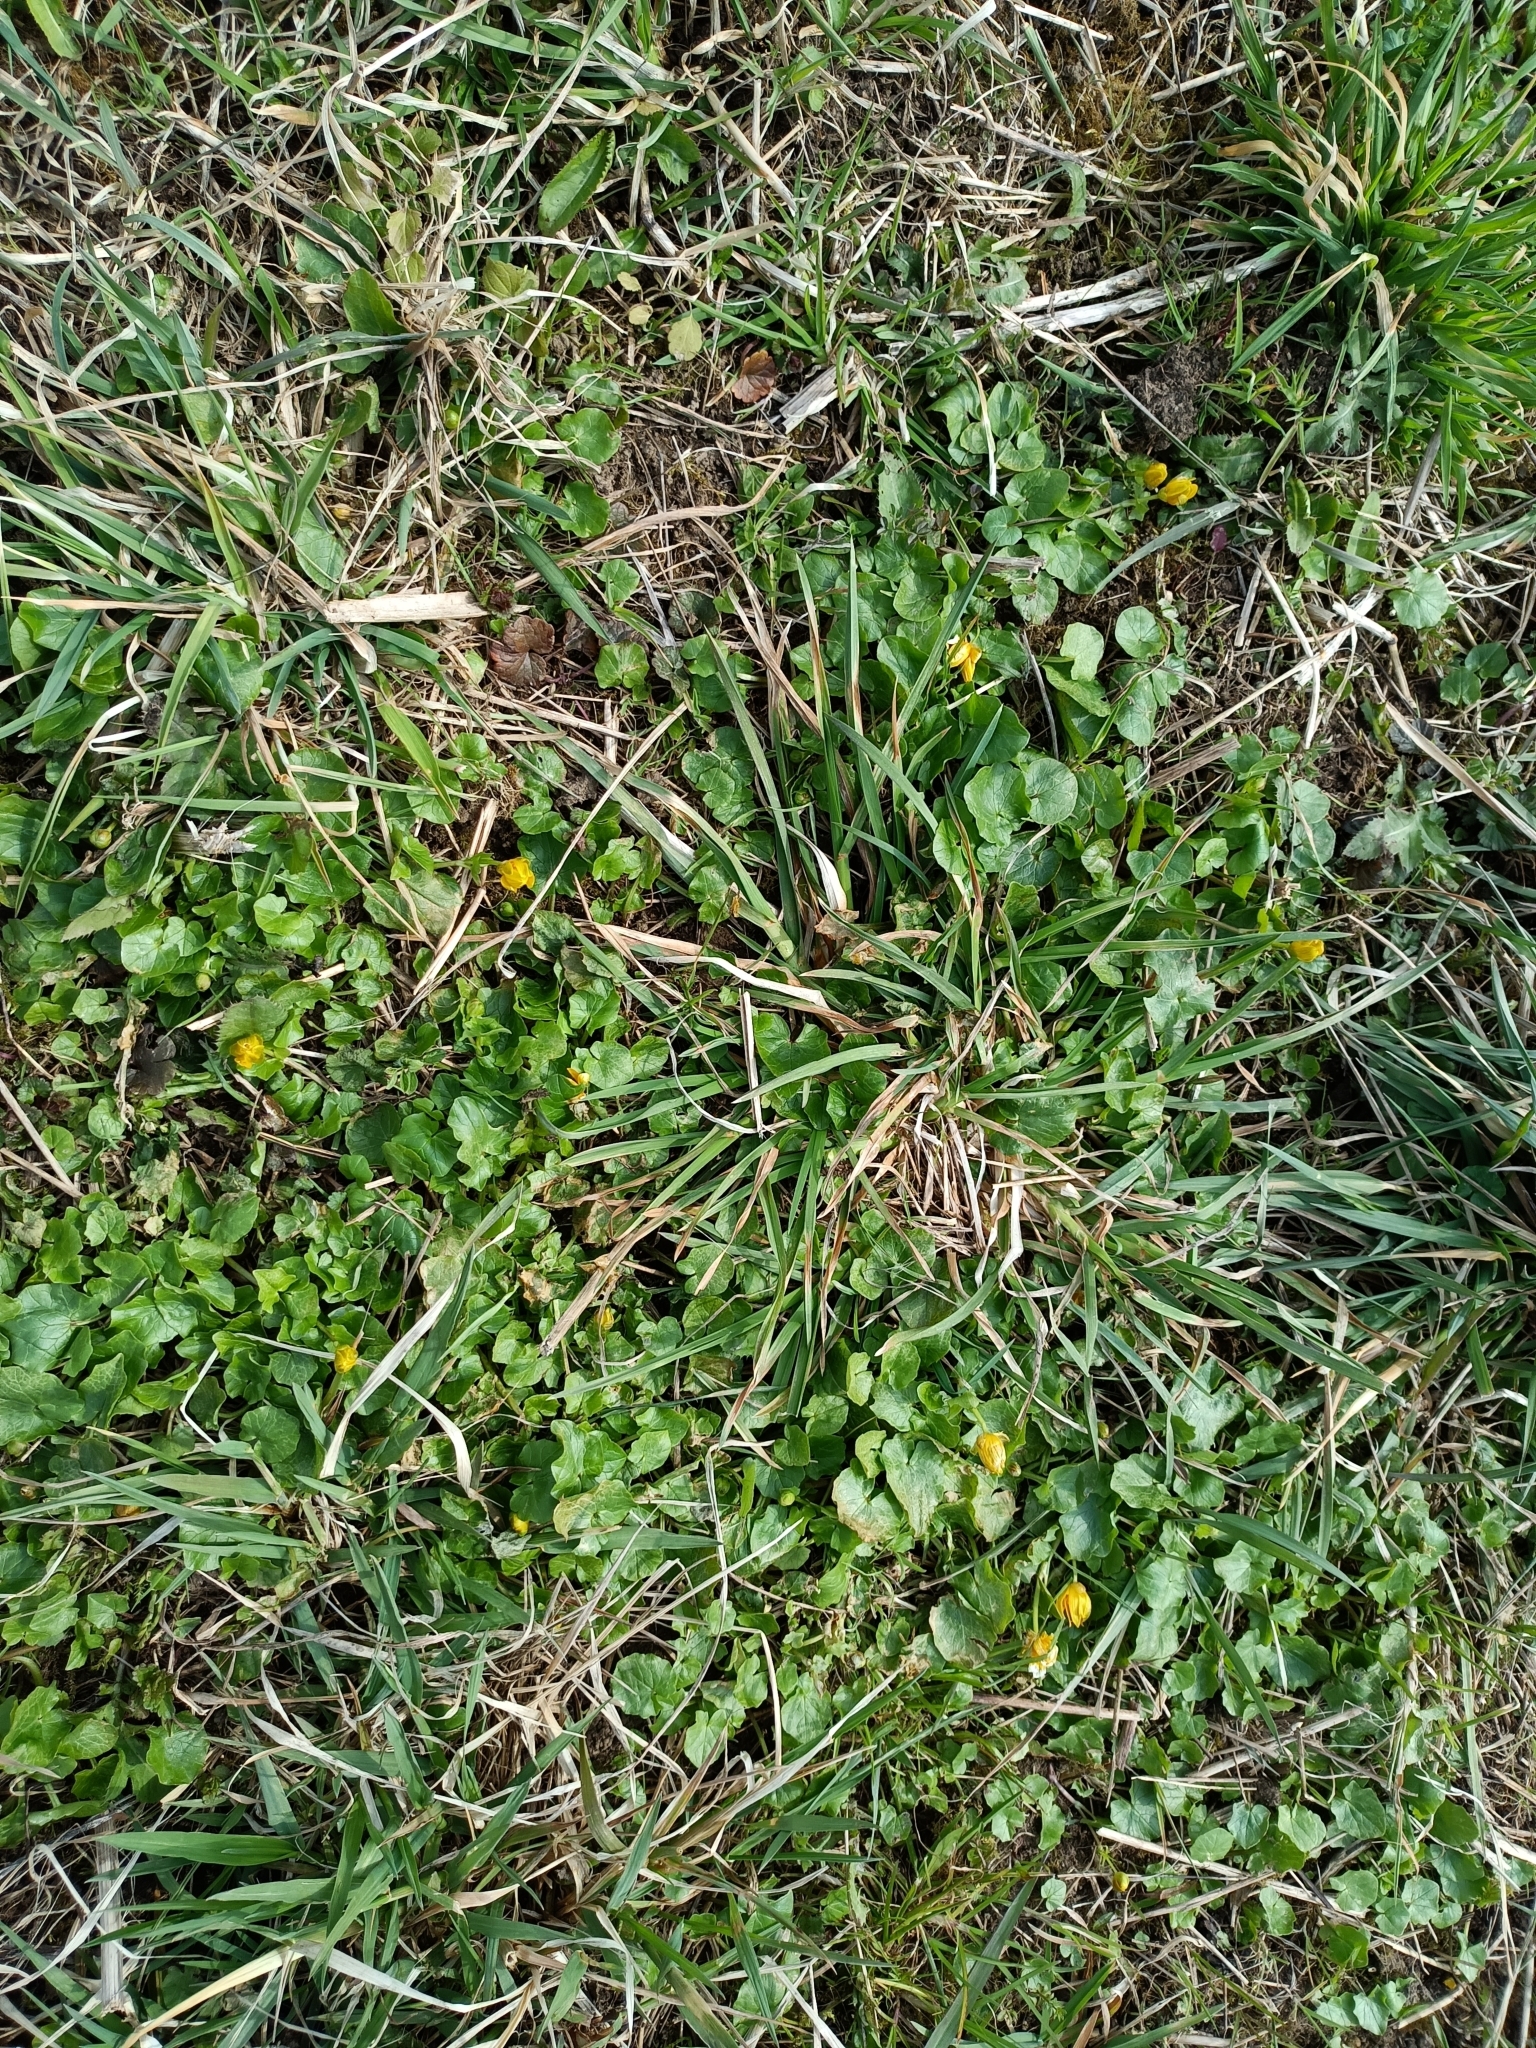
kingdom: Plantae
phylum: Tracheophyta
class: Magnoliopsida
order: Ranunculales
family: Ranunculaceae
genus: Ficaria
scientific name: Ficaria verna
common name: Lesser celandine
